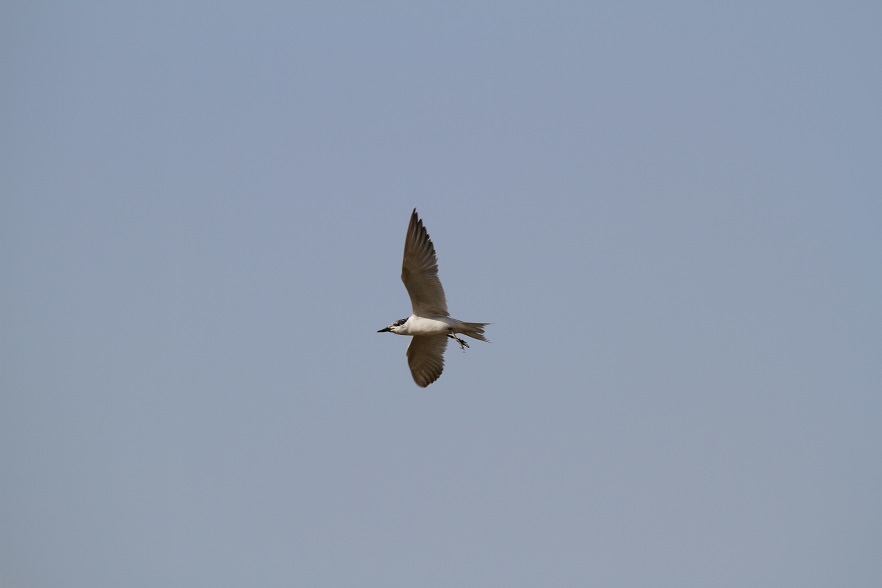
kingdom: Animalia
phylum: Chordata
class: Aves
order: Charadriiformes
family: Laridae
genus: Gelochelidon
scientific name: Gelochelidon nilotica
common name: Gull-billed tern
